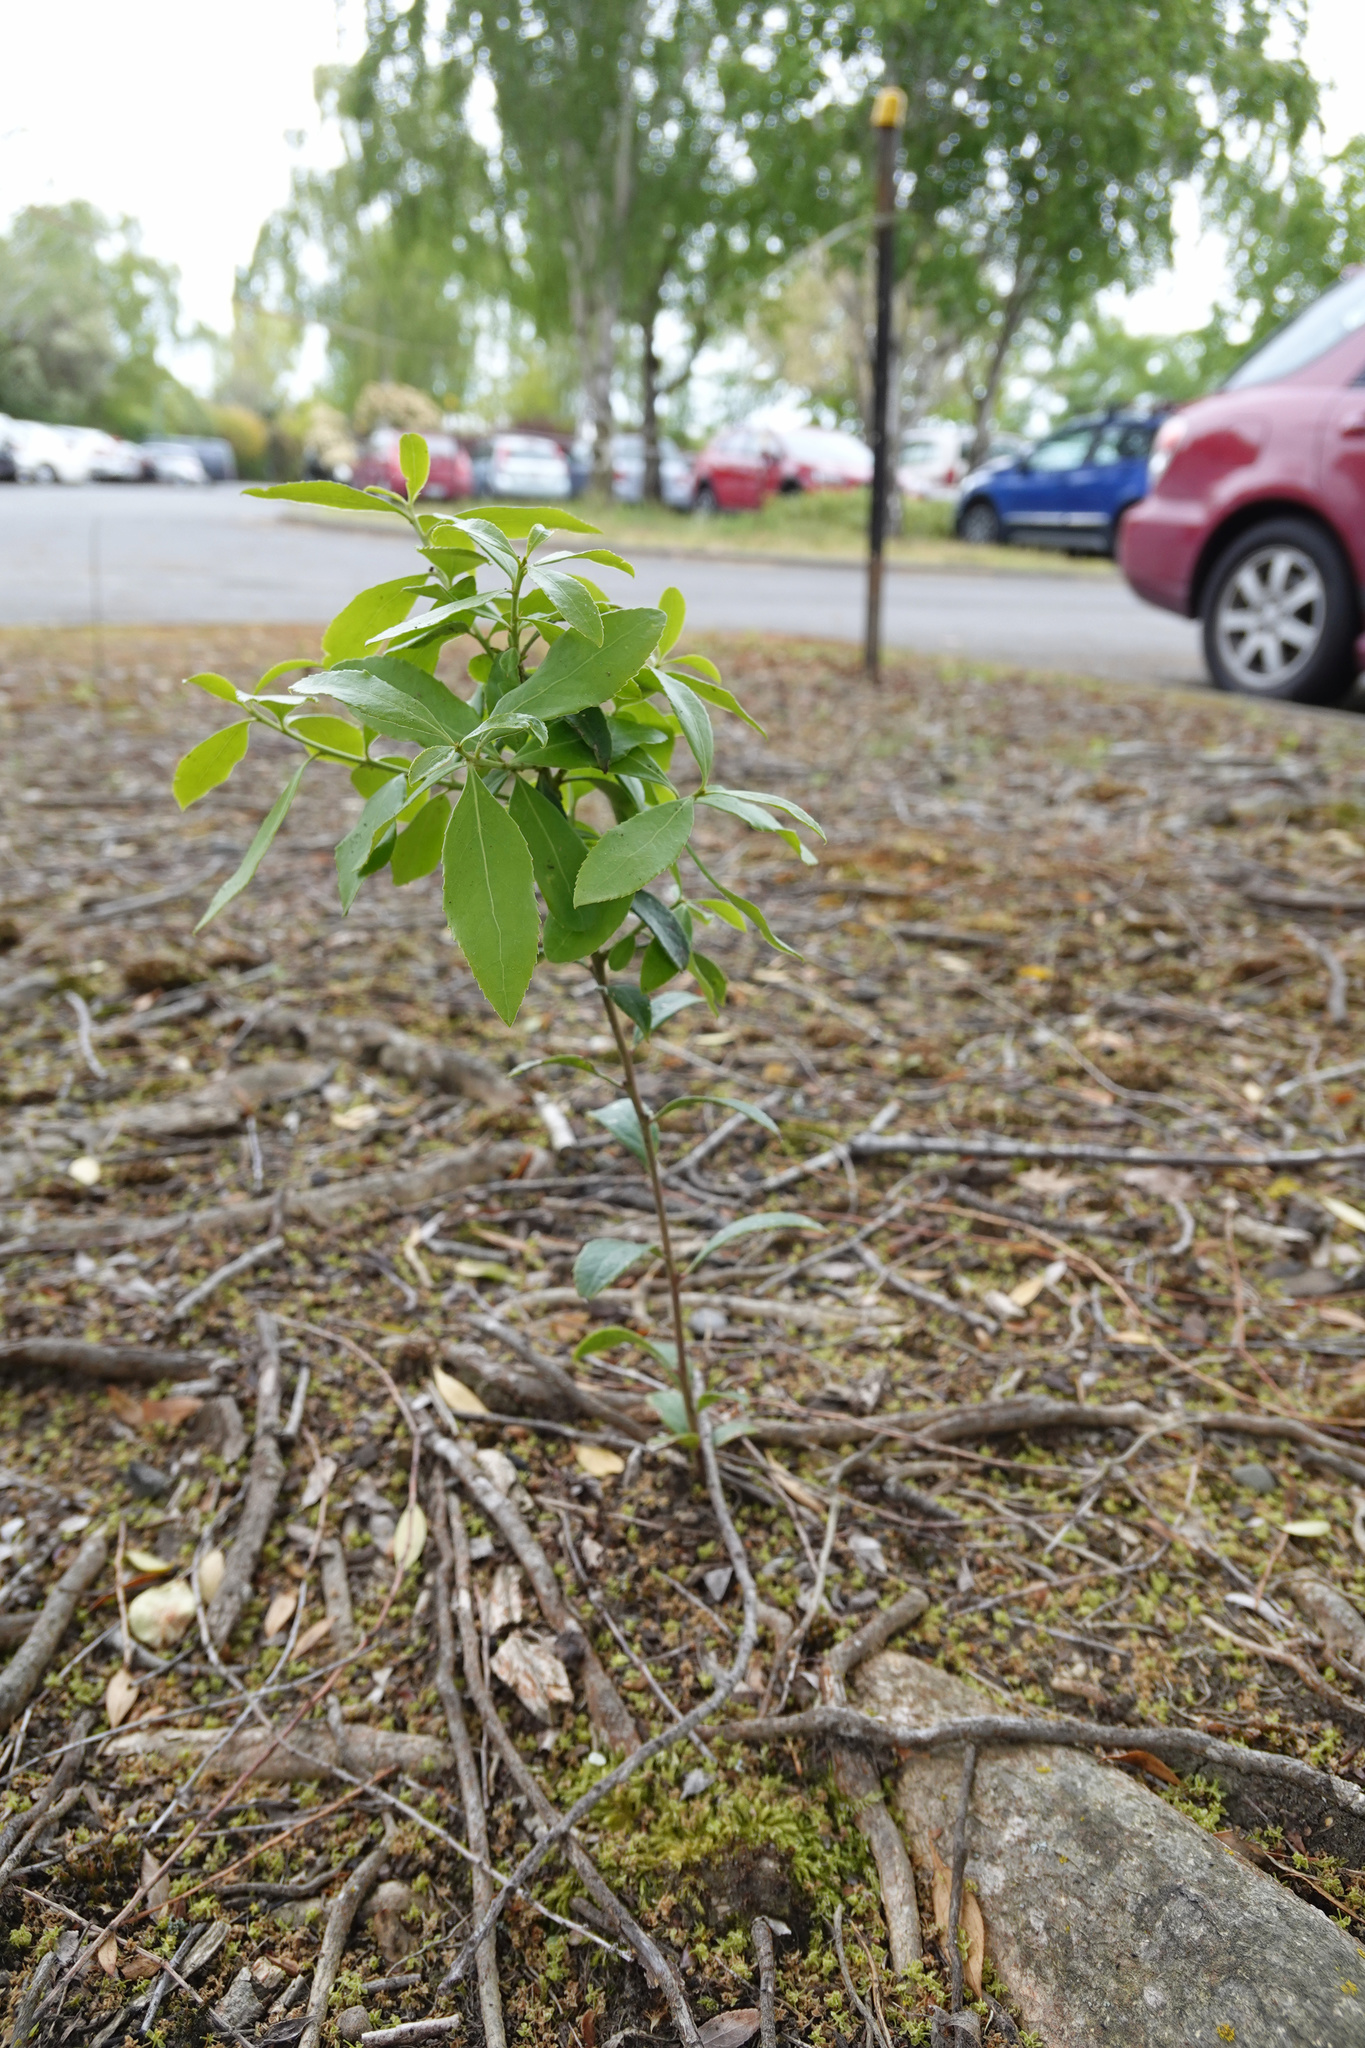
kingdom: Plantae
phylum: Tracheophyta
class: Magnoliopsida
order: Celastrales
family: Celastraceae
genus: Maytenus
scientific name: Maytenus boaria
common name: Mayten
